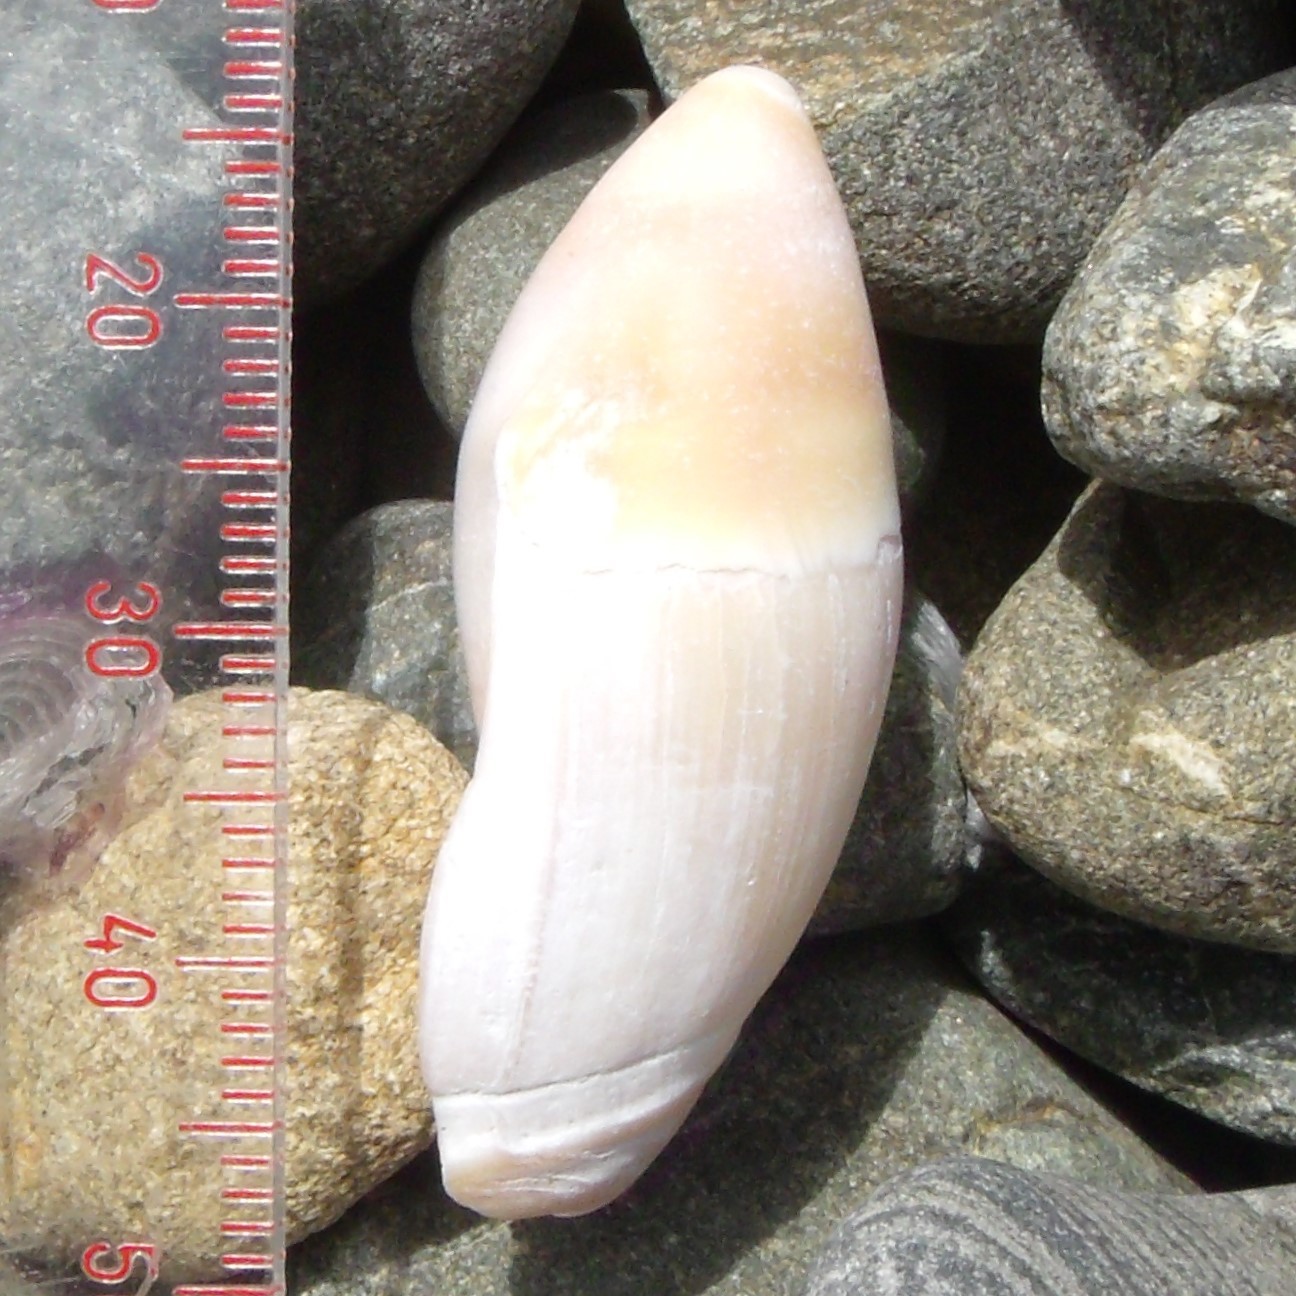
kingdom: Animalia
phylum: Mollusca
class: Gastropoda
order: Neogastropoda
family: Ancillariidae
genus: Amalda
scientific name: Amalda mucronata
